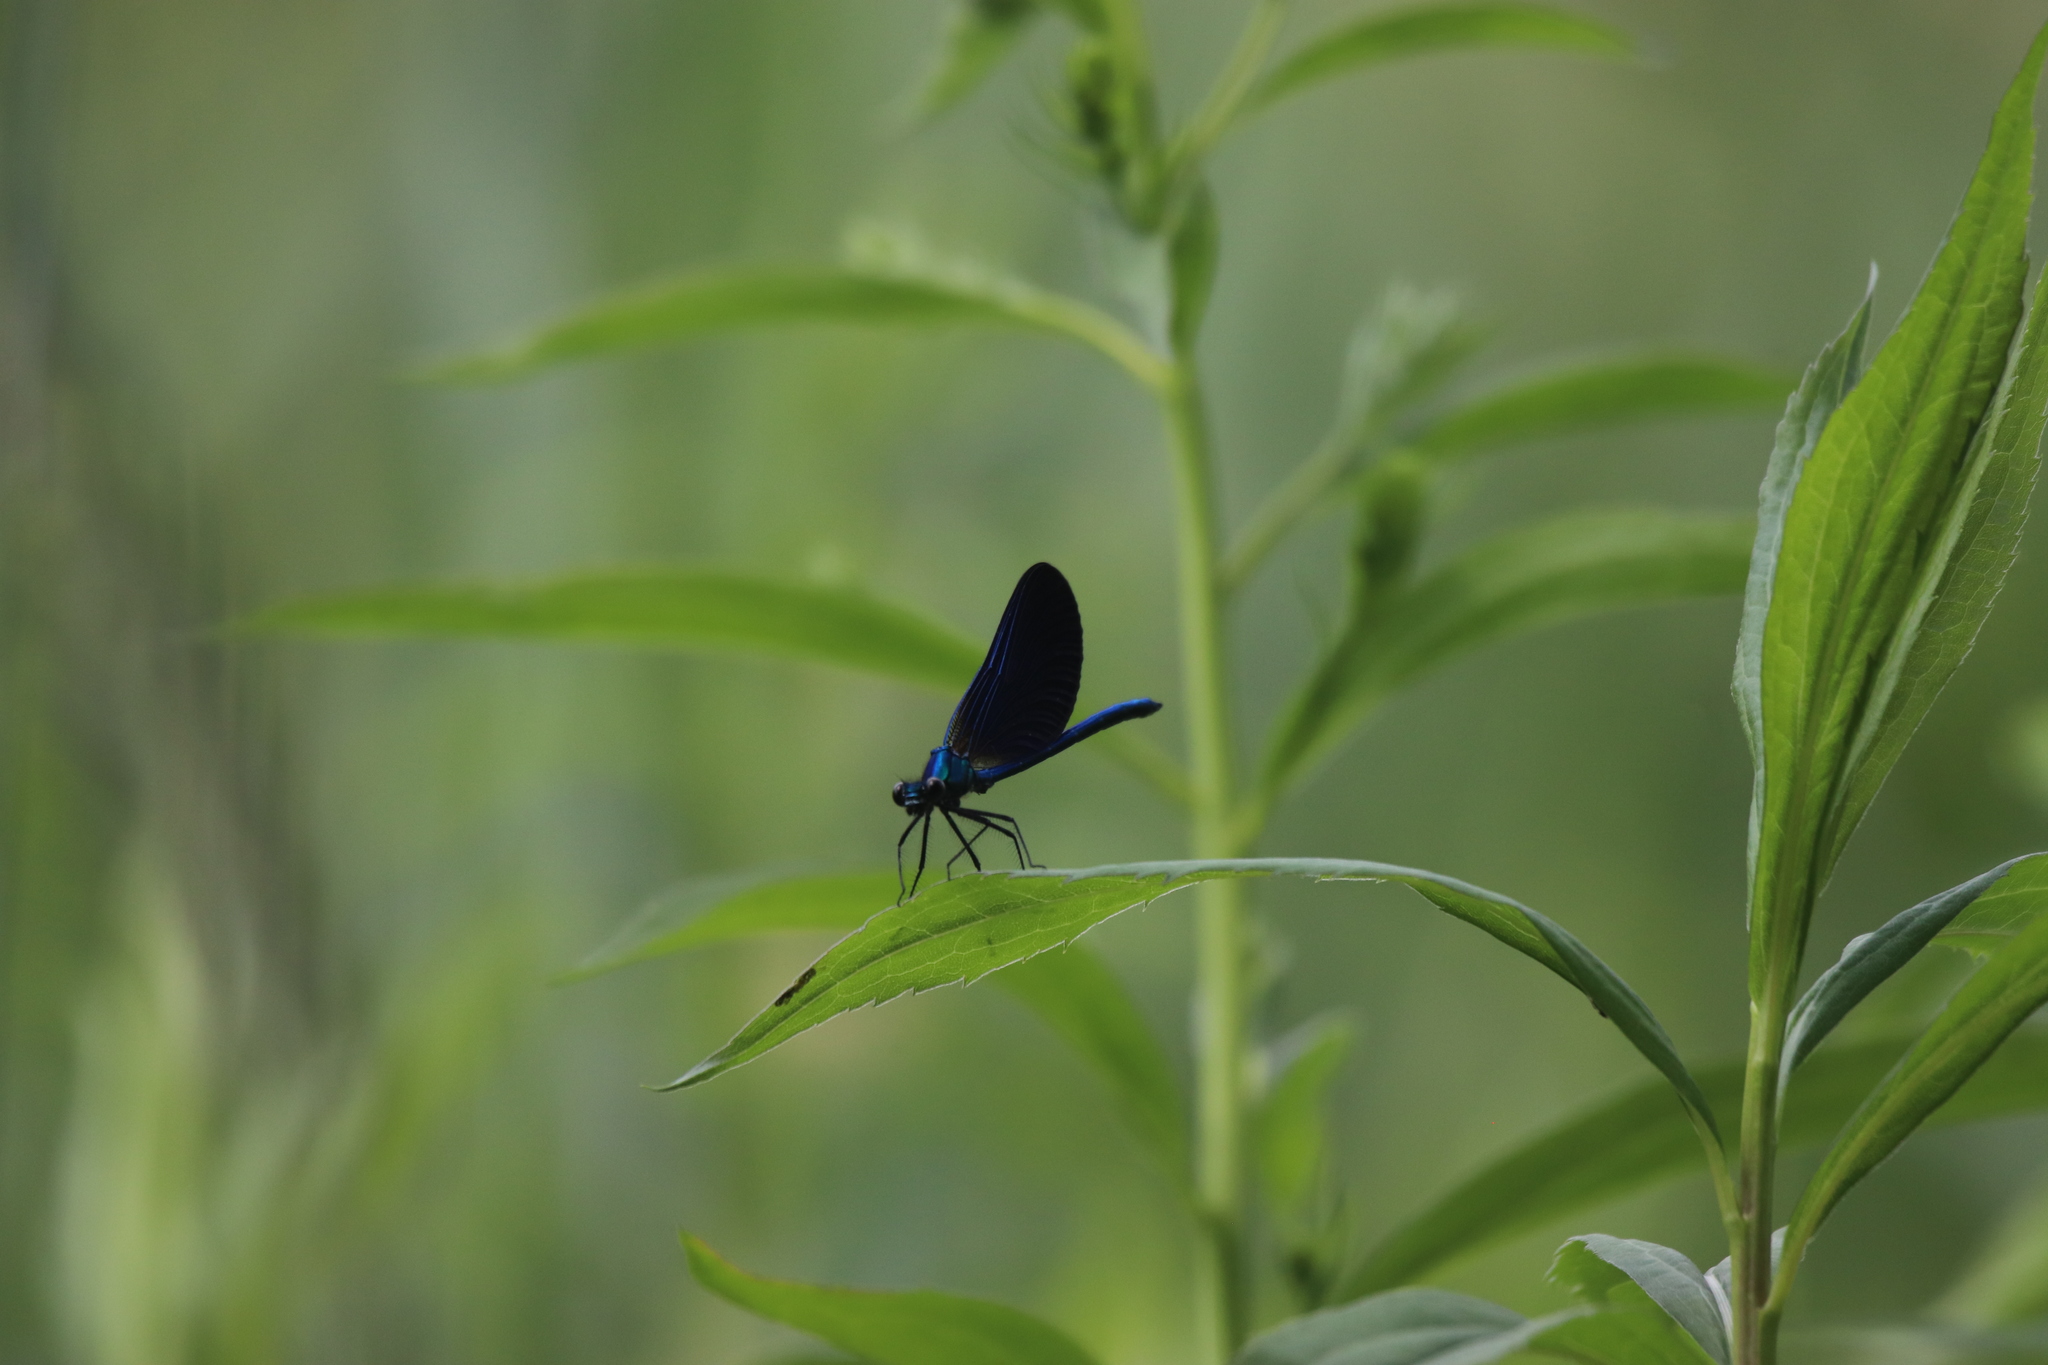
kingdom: Animalia
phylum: Arthropoda
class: Insecta
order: Odonata
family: Calopterygidae
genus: Calopteryx
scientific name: Calopteryx virgo
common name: Beautiful demoiselle
